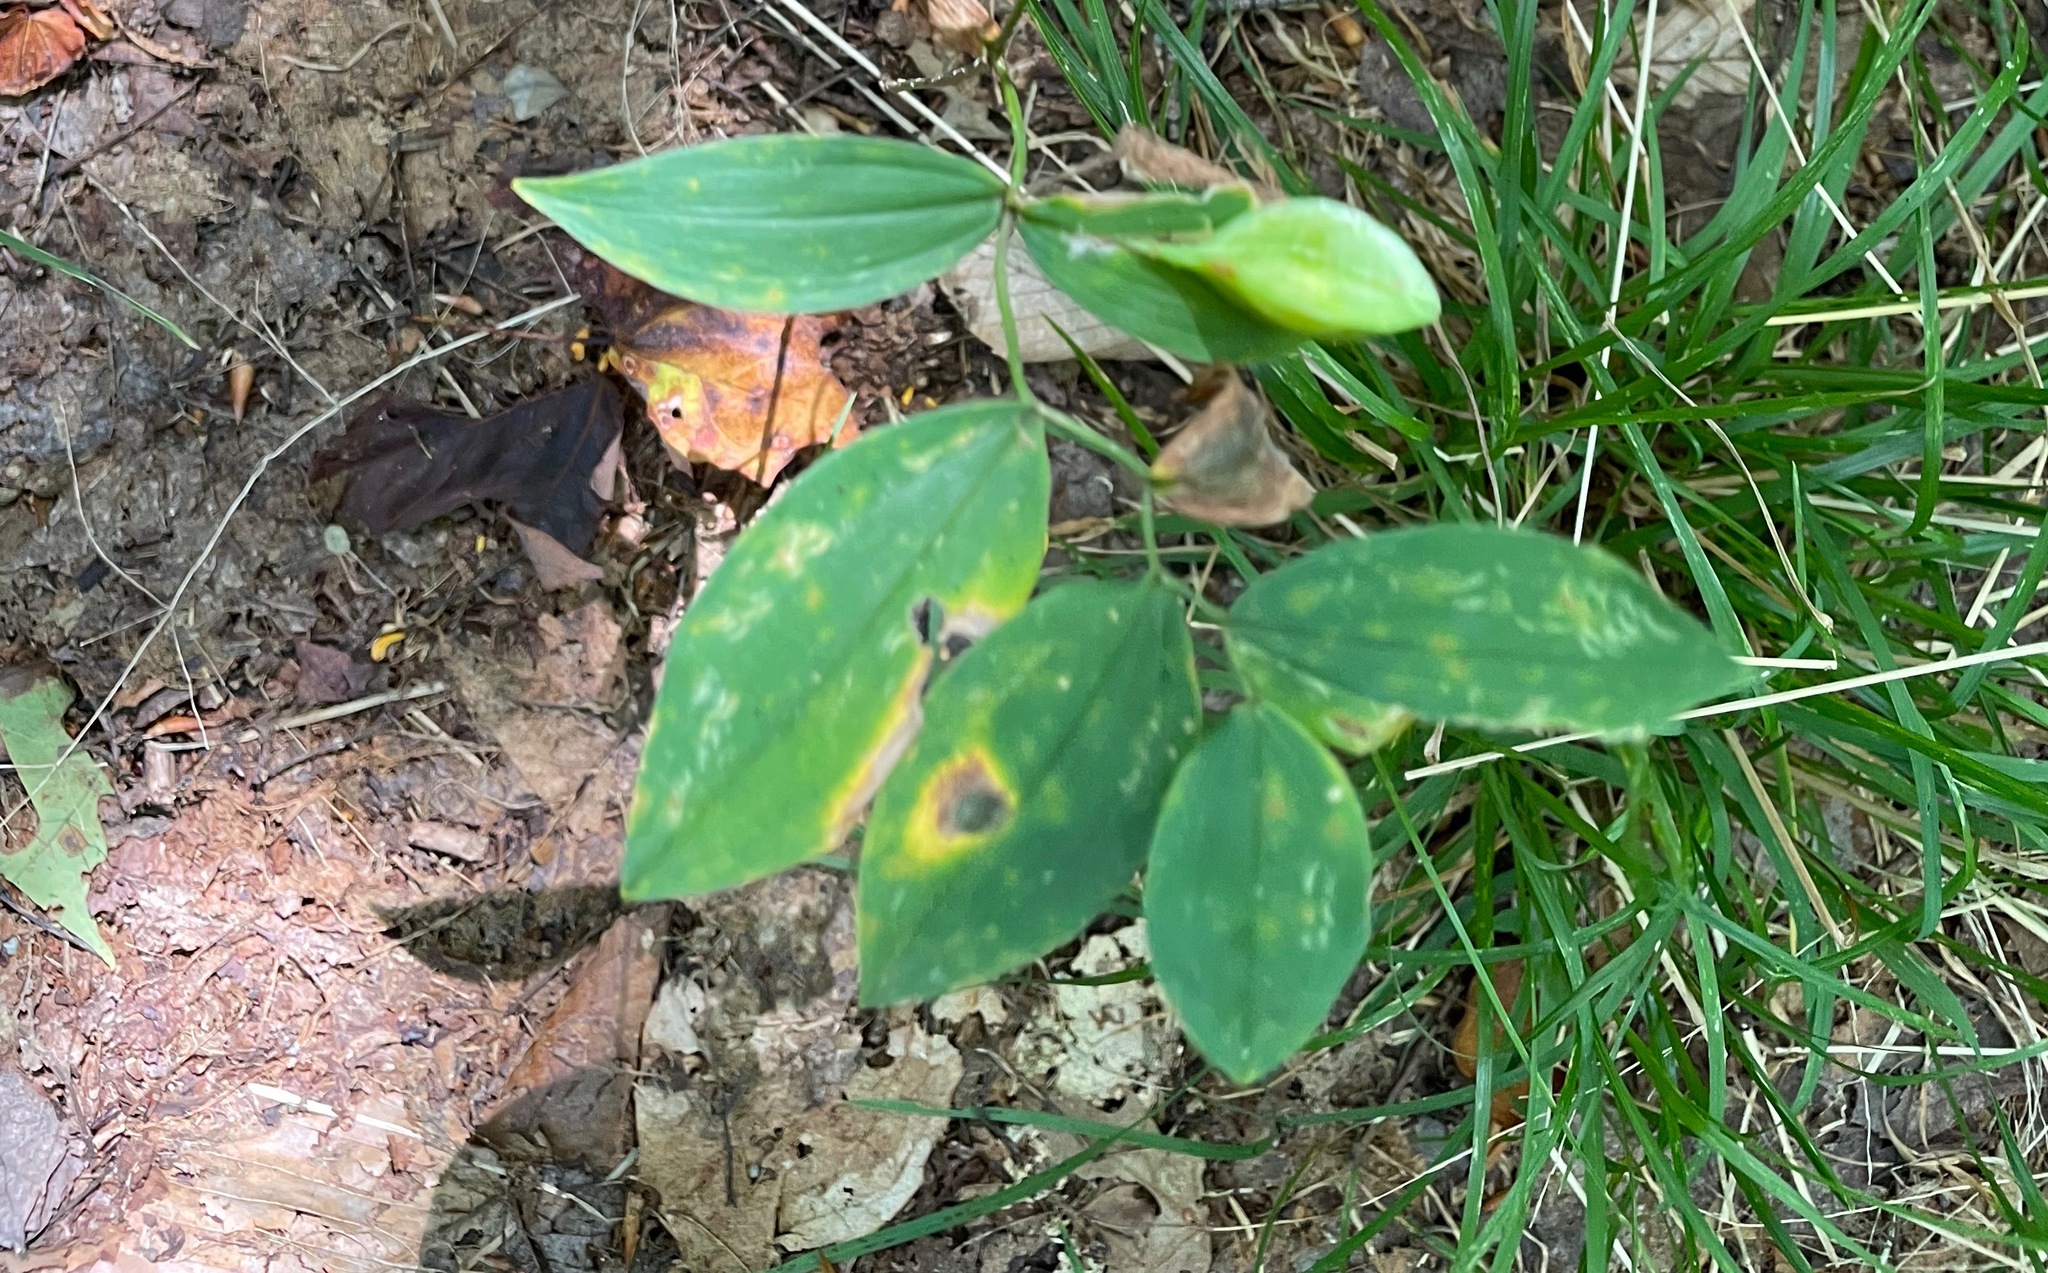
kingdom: Plantae
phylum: Tracheophyta
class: Liliopsida
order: Liliales
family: Colchicaceae
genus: Uvularia
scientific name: Uvularia sessilifolia
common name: Straw-lily
